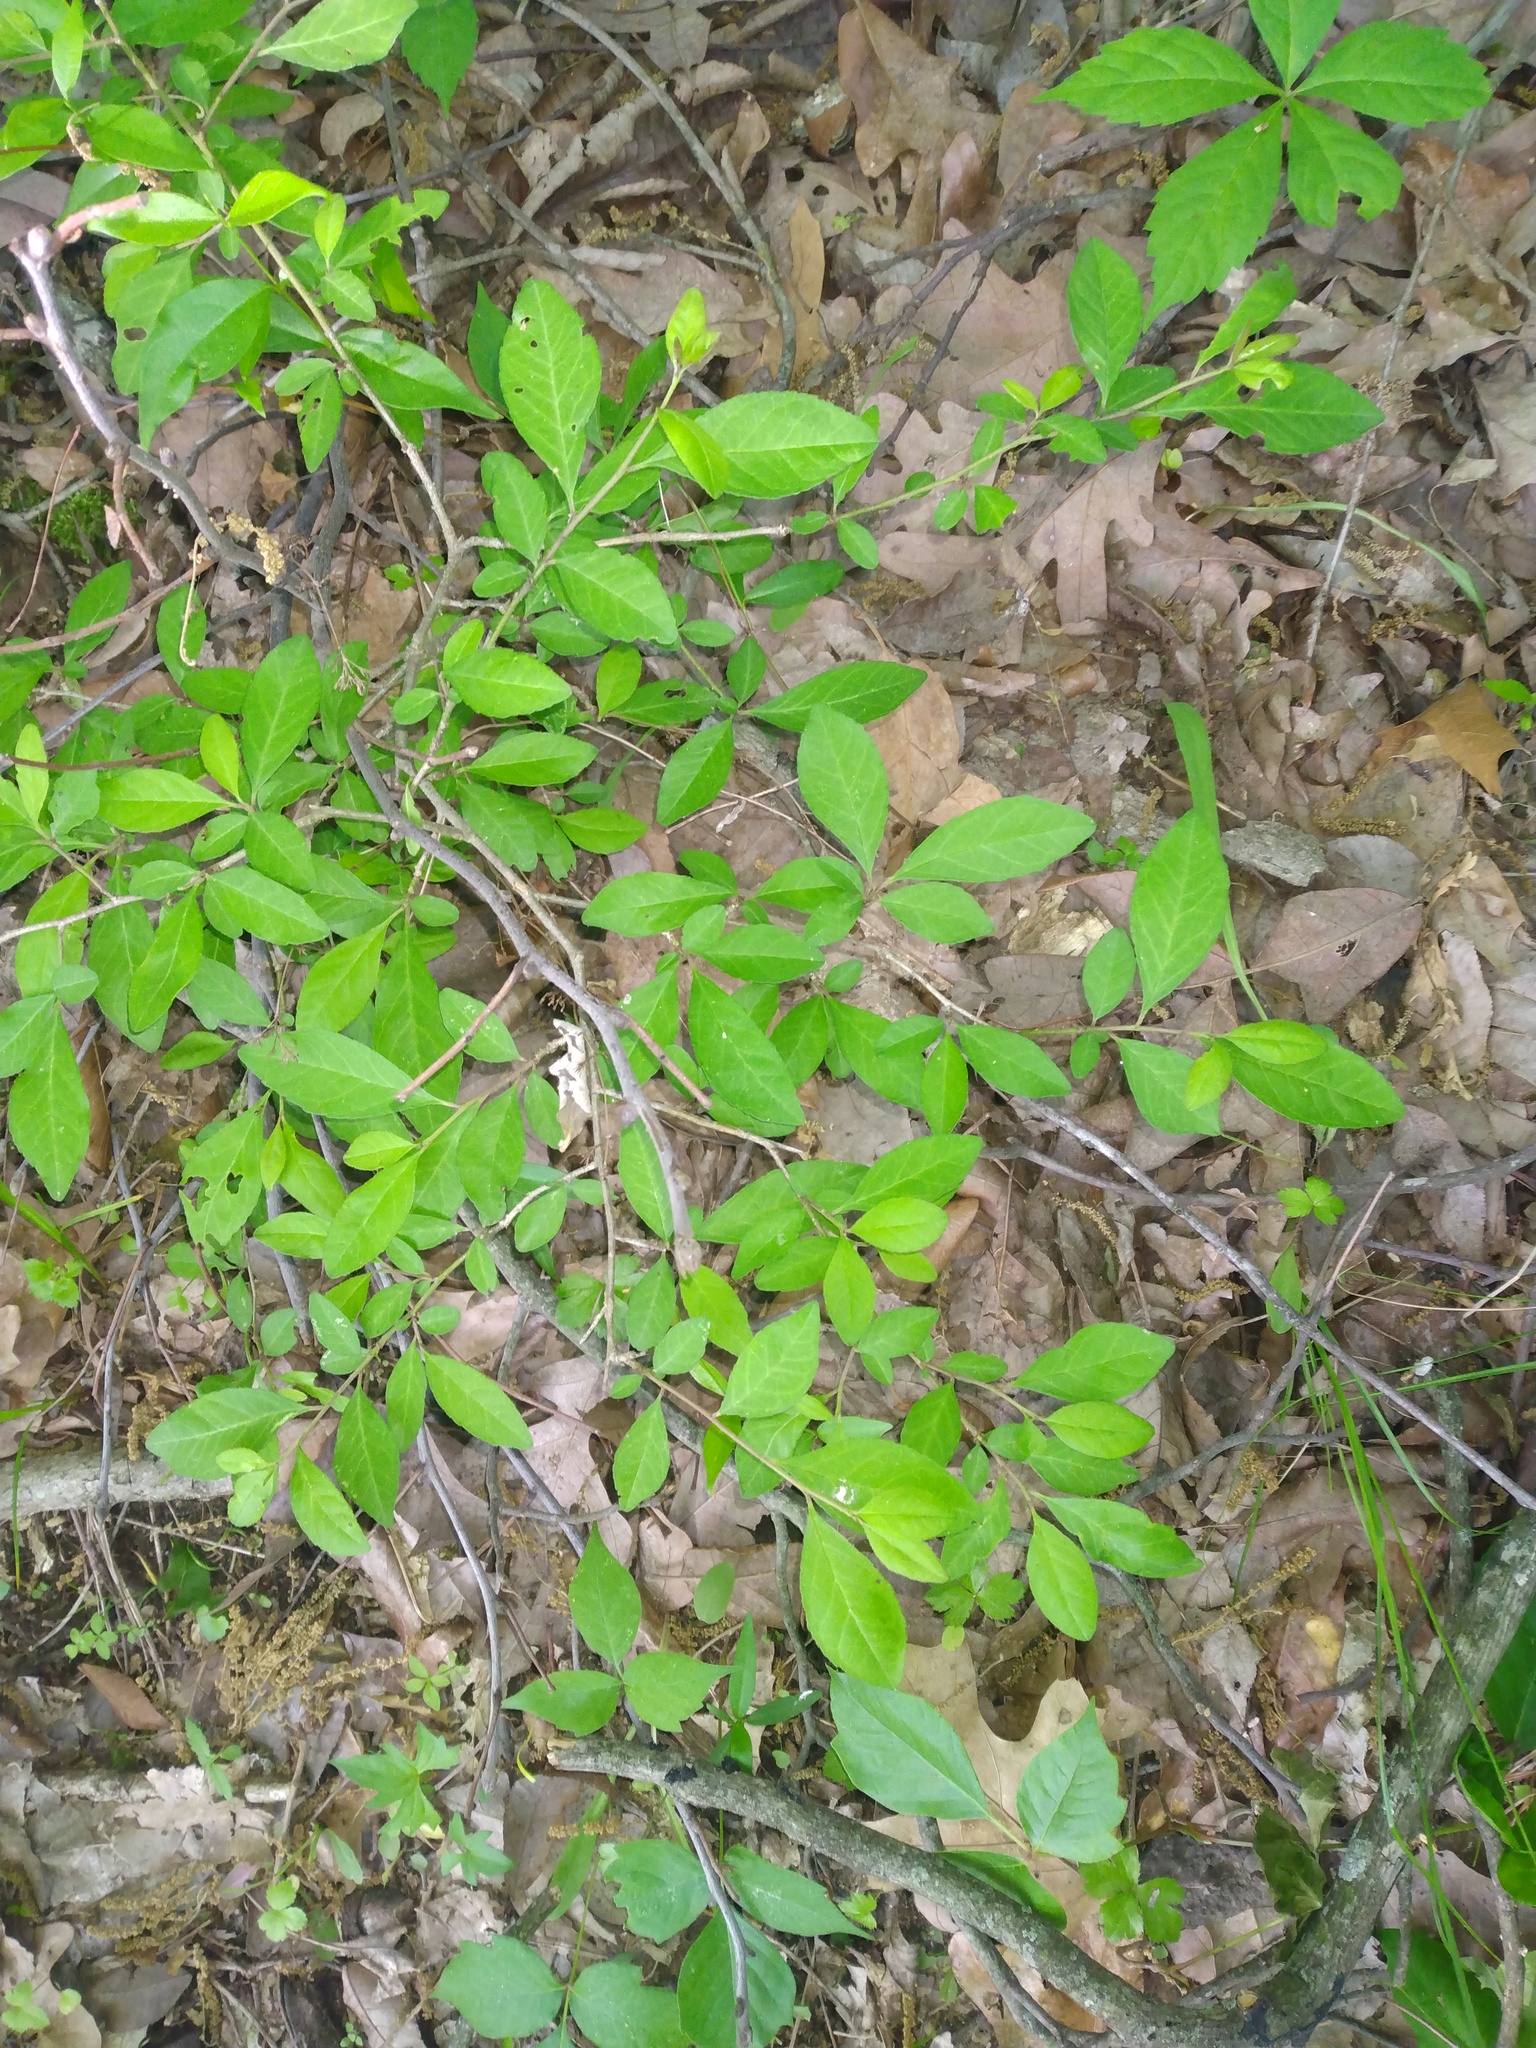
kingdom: Plantae
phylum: Tracheophyta
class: Magnoliopsida
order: Aquifoliales
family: Aquifoliaceae
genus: Ilex
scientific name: Ilex decidua
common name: Possum-haw
